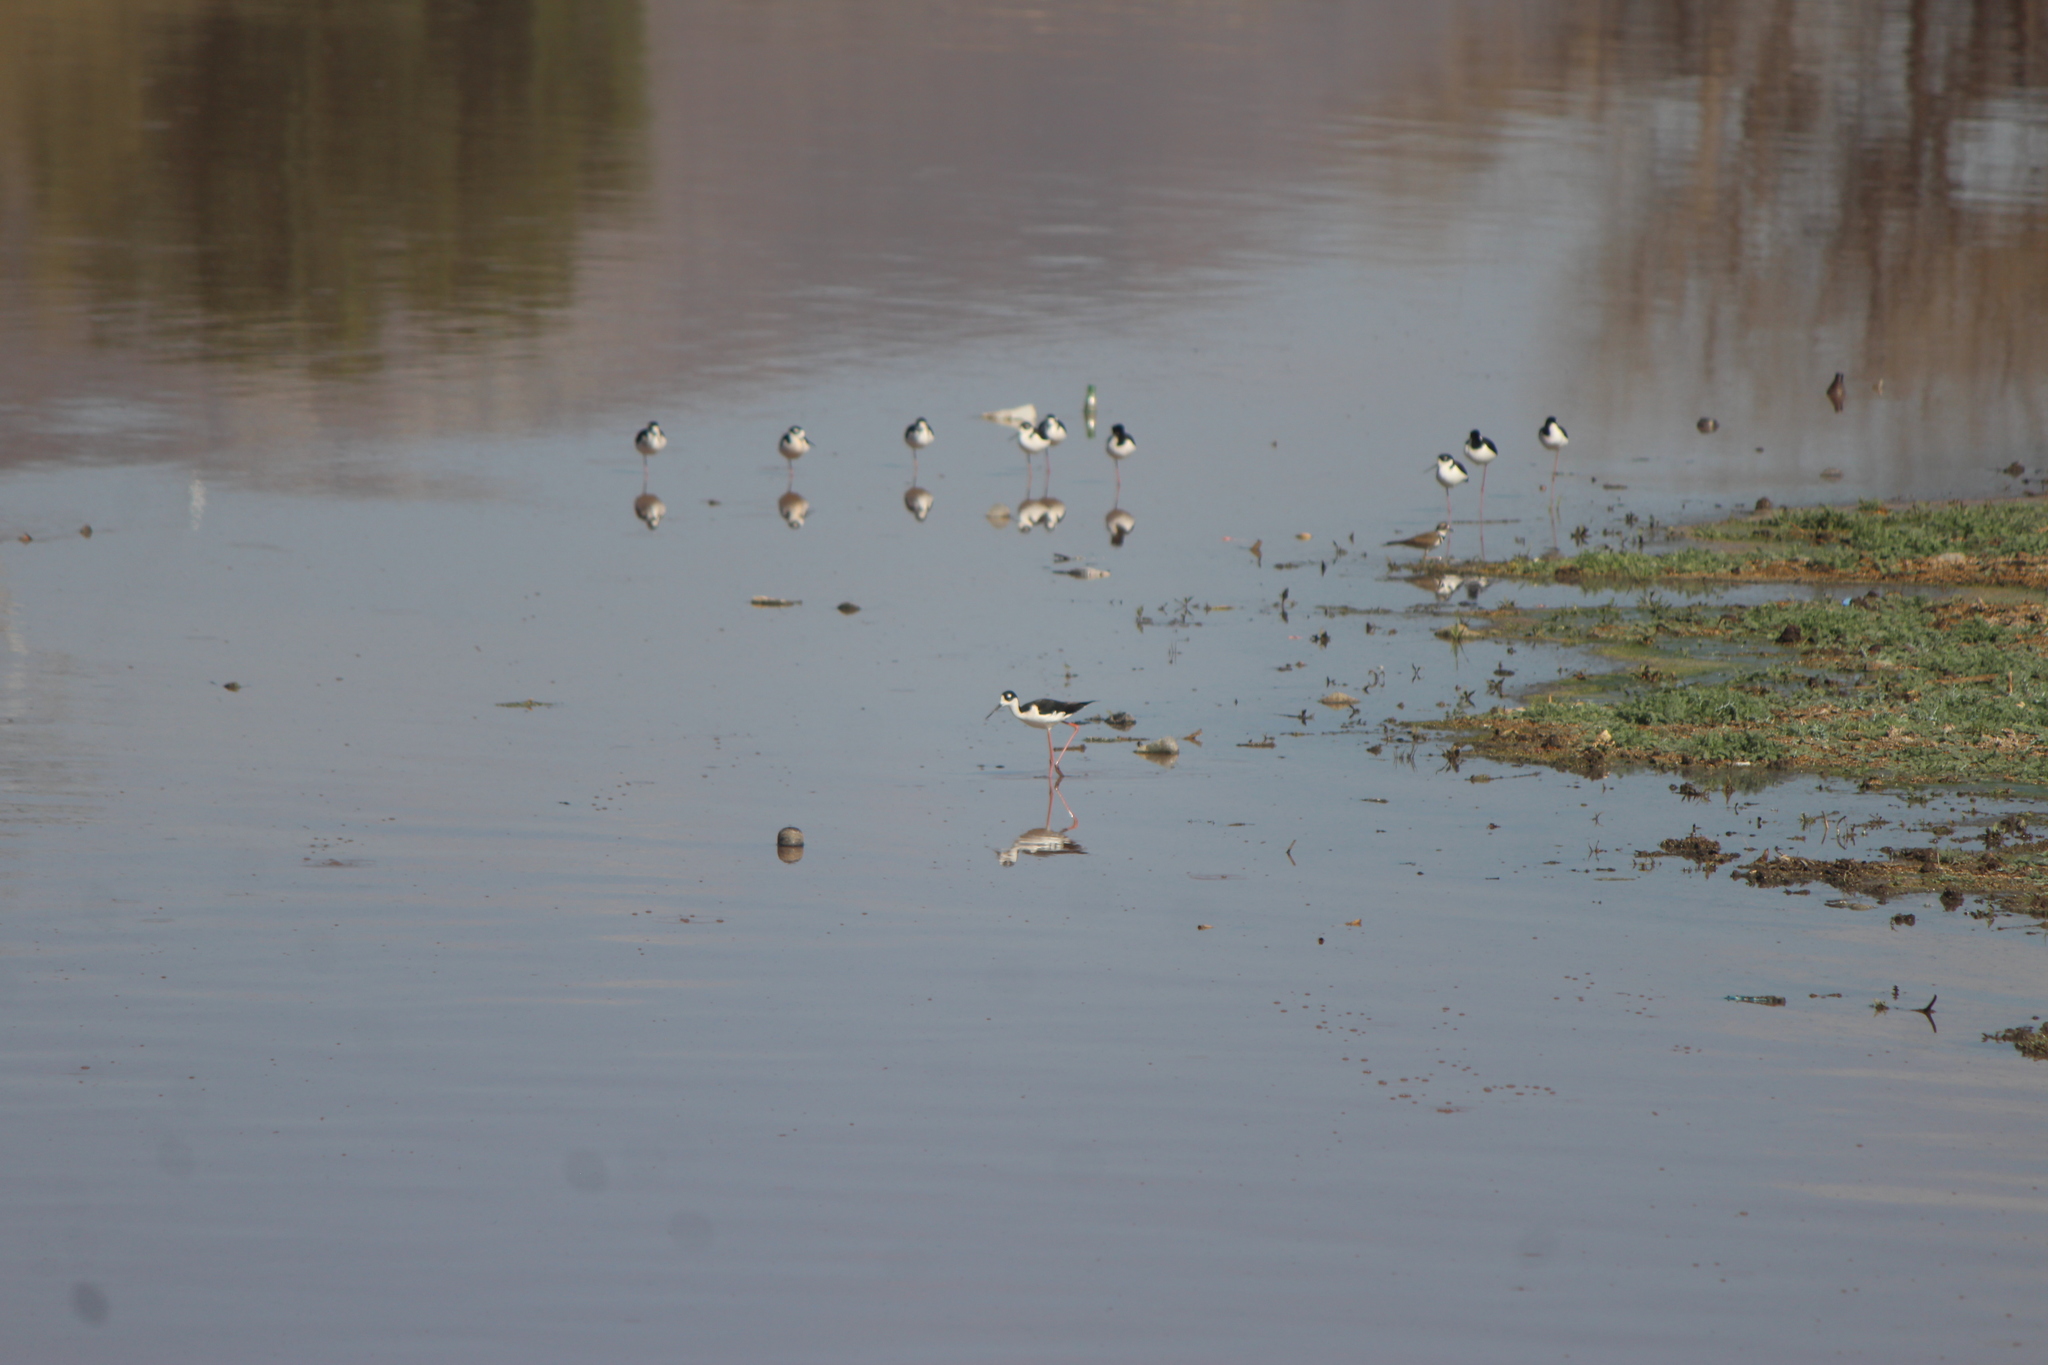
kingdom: Animalia
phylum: Chordata
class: Aves
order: Charadriiformes
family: Recurvirostridae
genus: Himantopus
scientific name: Himantopus mexicanus
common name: Black-necked stilt
